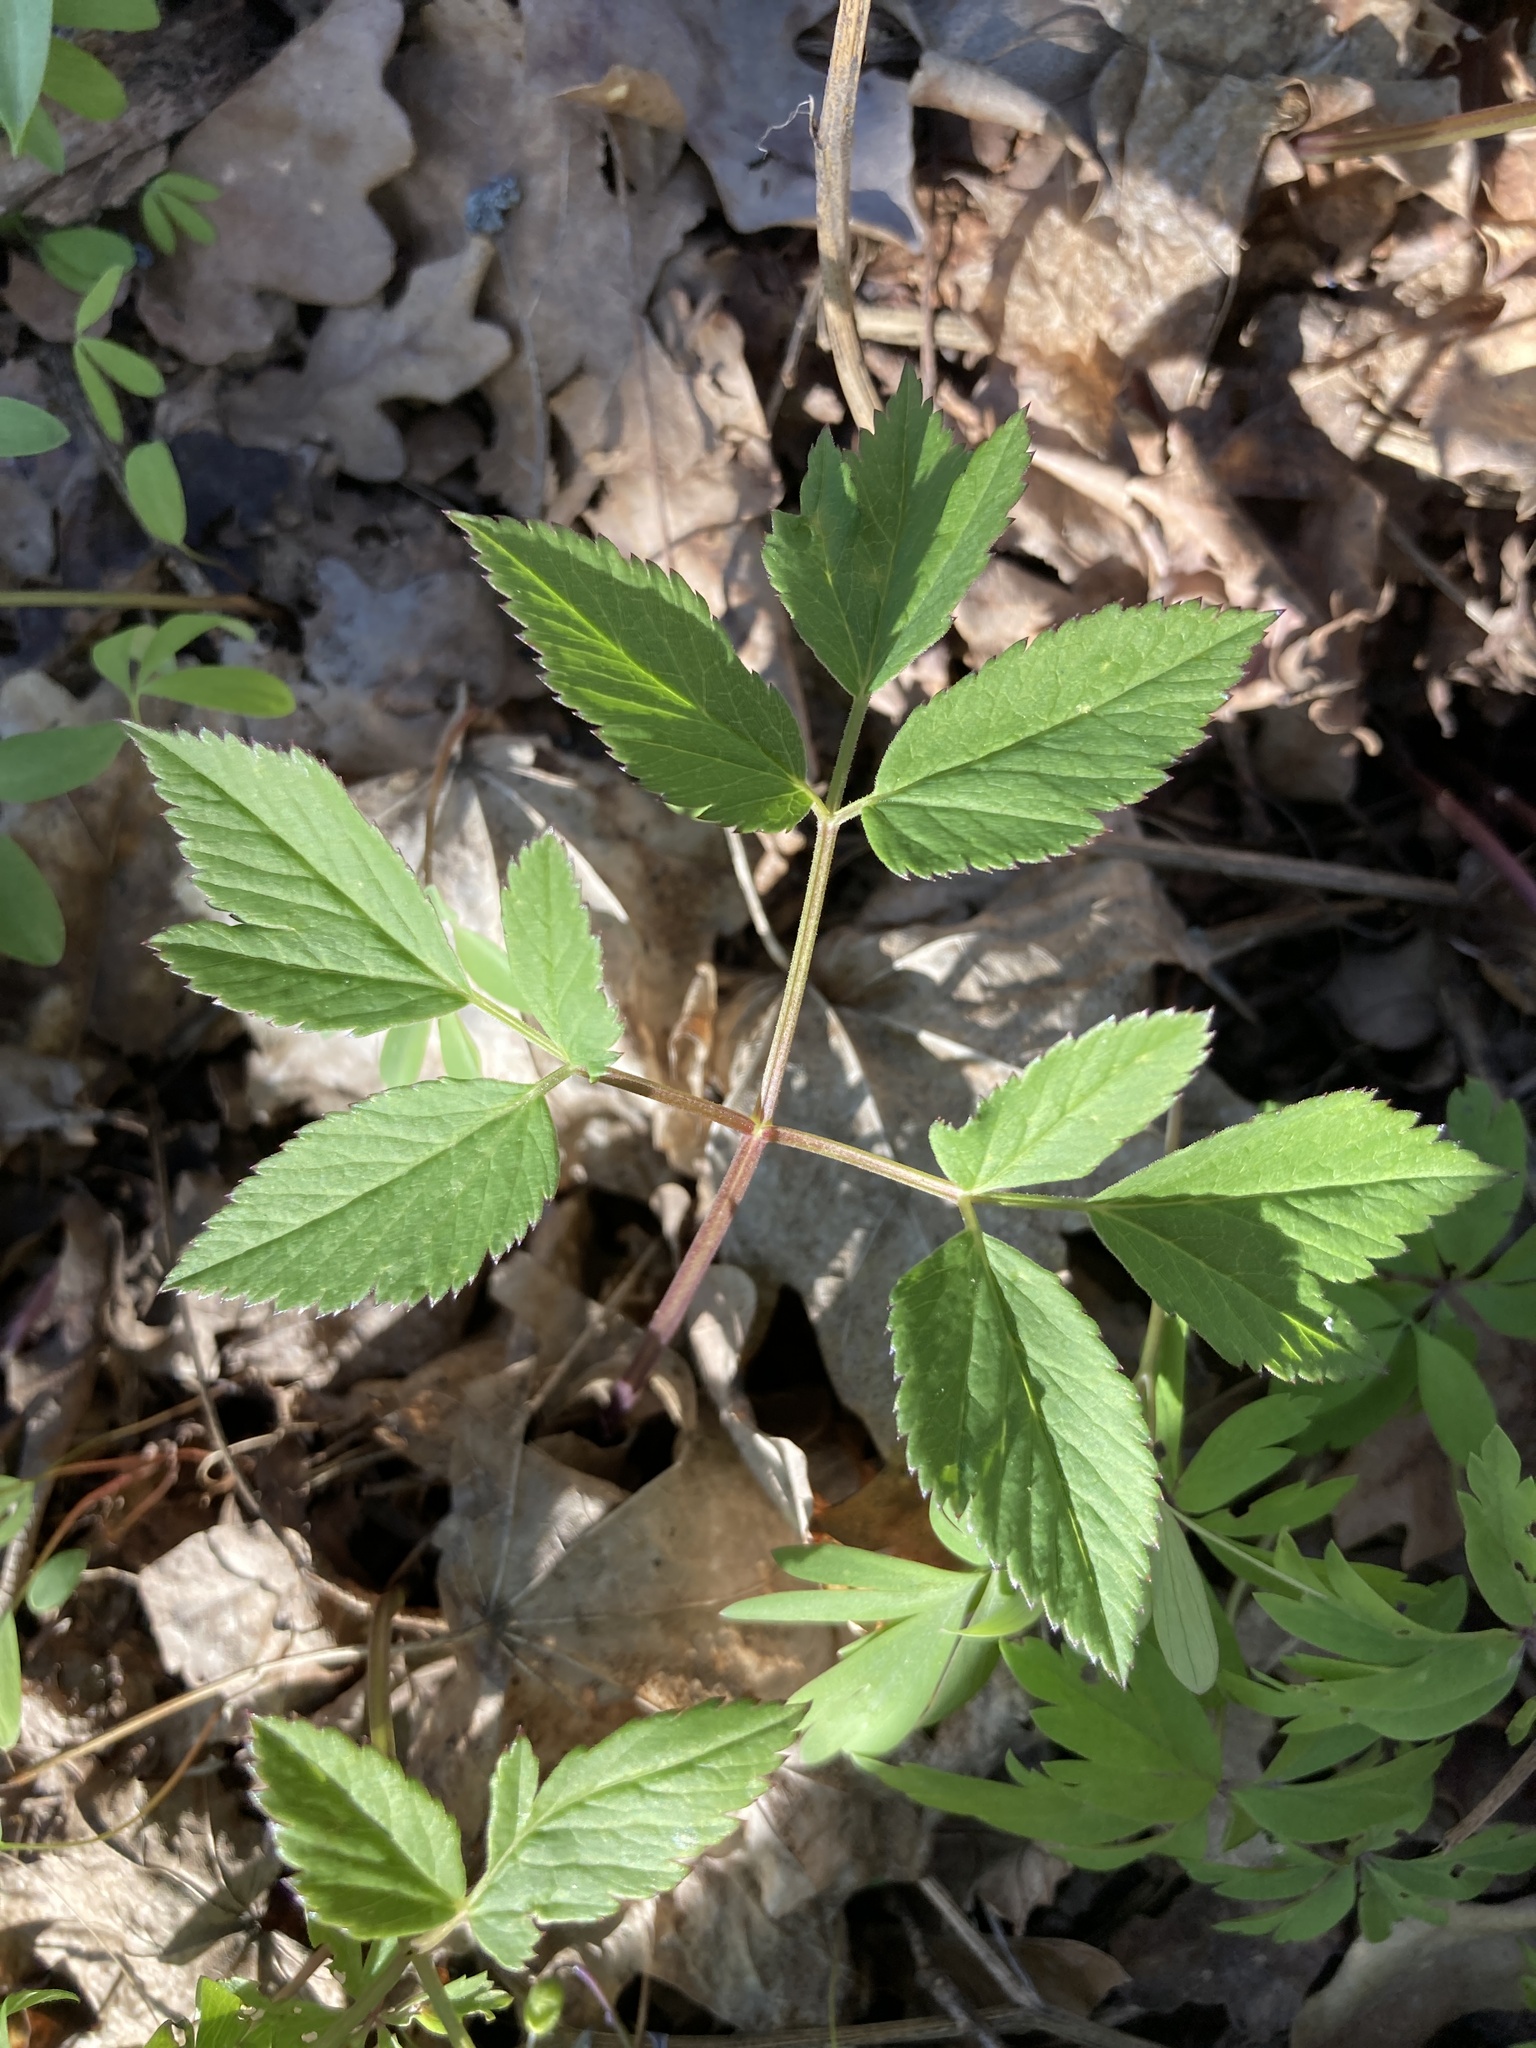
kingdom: Plantae
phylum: Tracheophyta
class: Magnoliopsida
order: Apiales
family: Apiaceae
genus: Aegopodium
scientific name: Aegopodium podagraria
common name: Ground-elder
